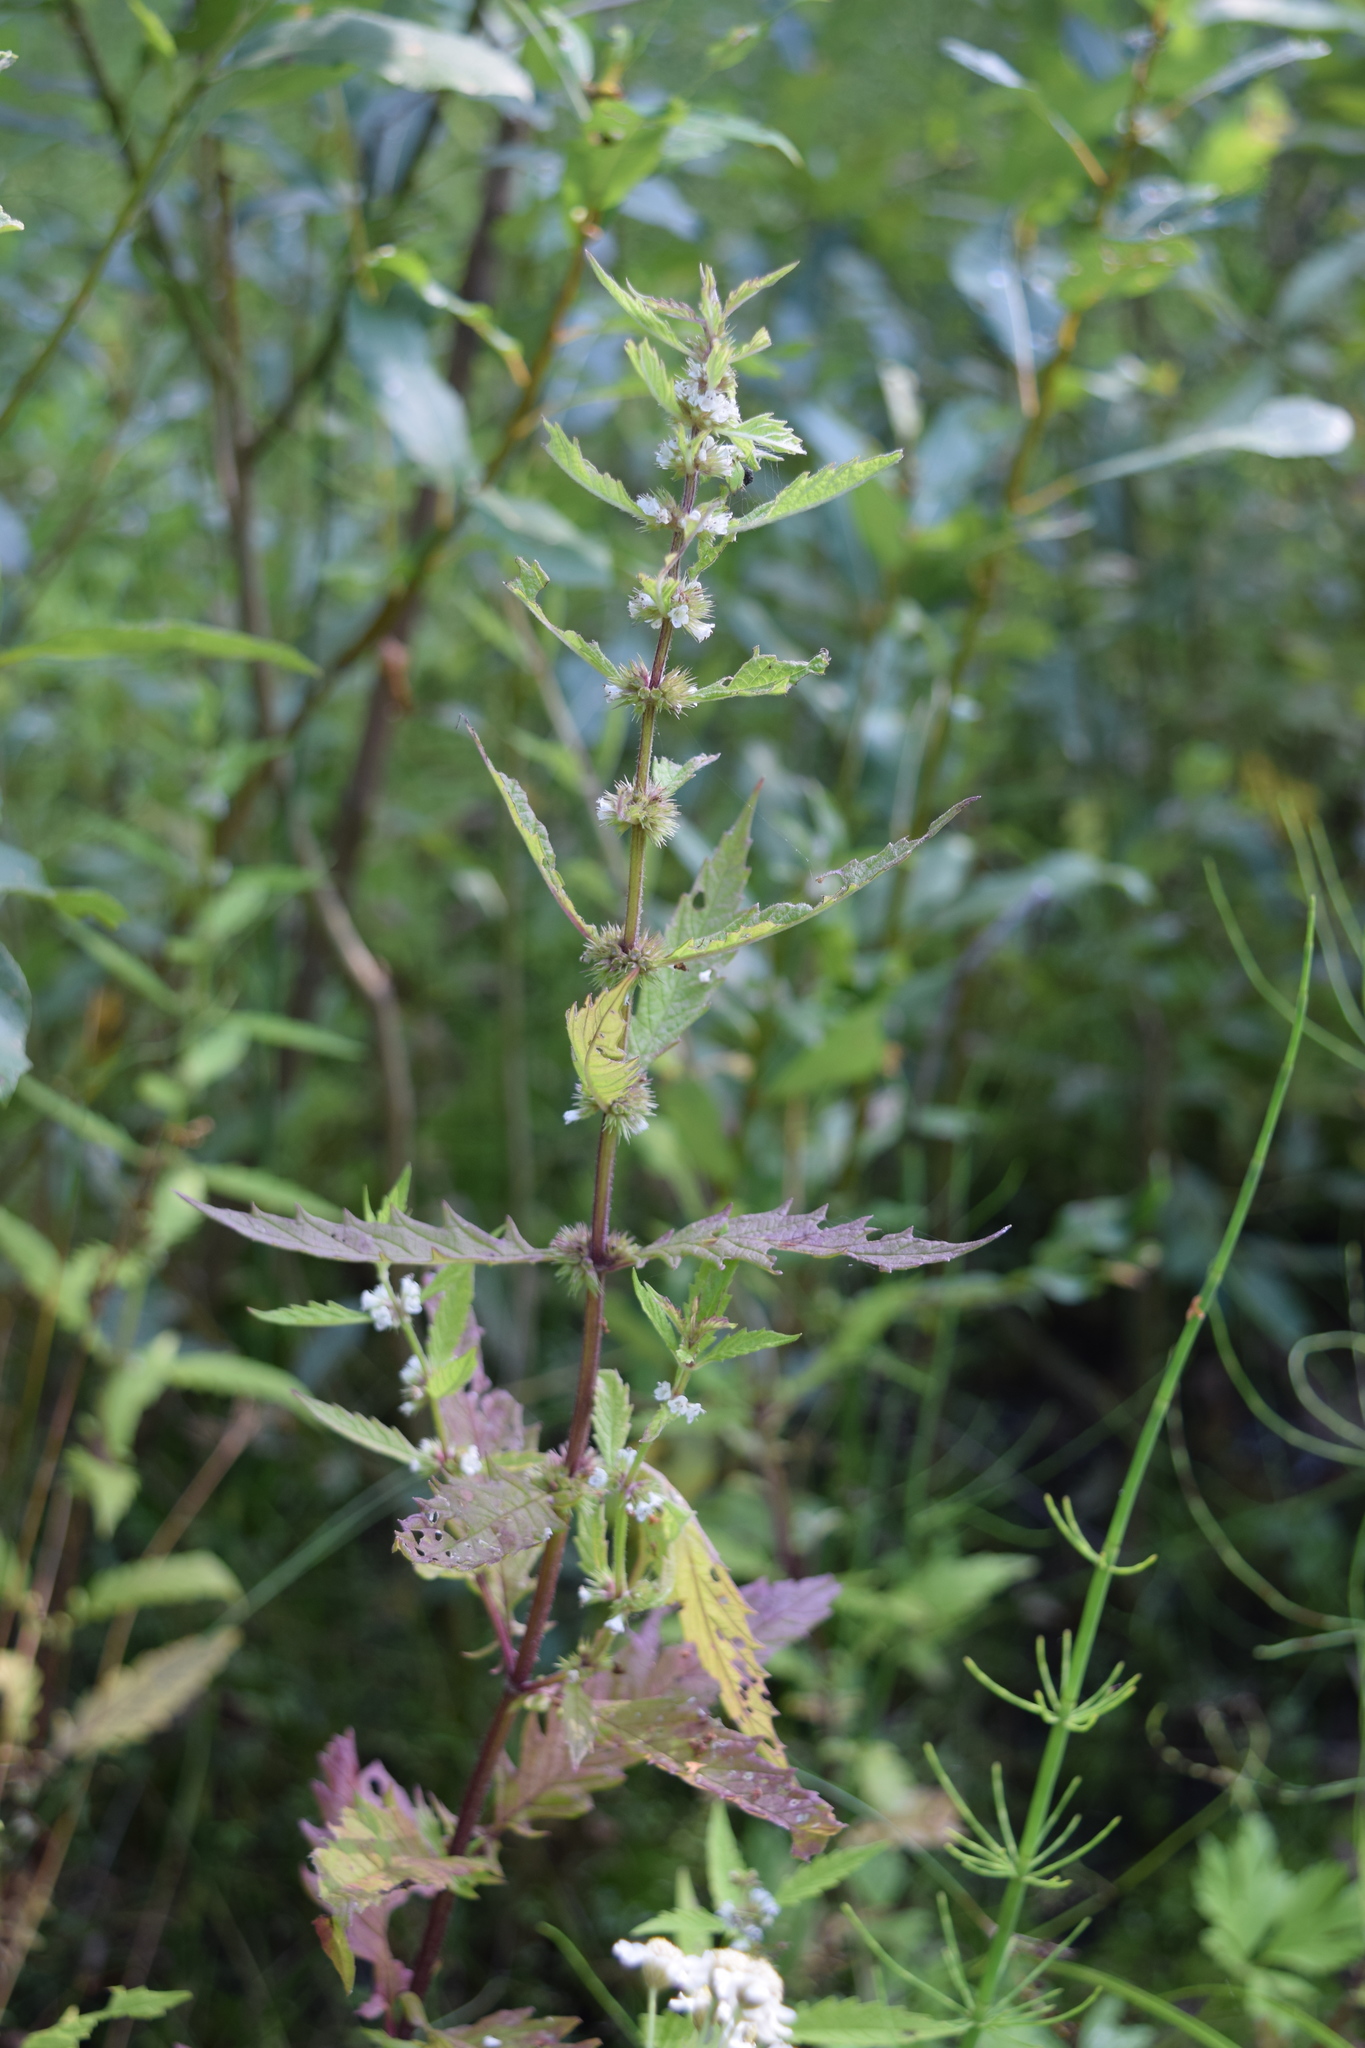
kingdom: Plantae
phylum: Tracheophyta
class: Magnoliopsida
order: Lamiales
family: Lamiaceae
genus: Lycopus
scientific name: Lycopus europaeus
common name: European bugleweed
